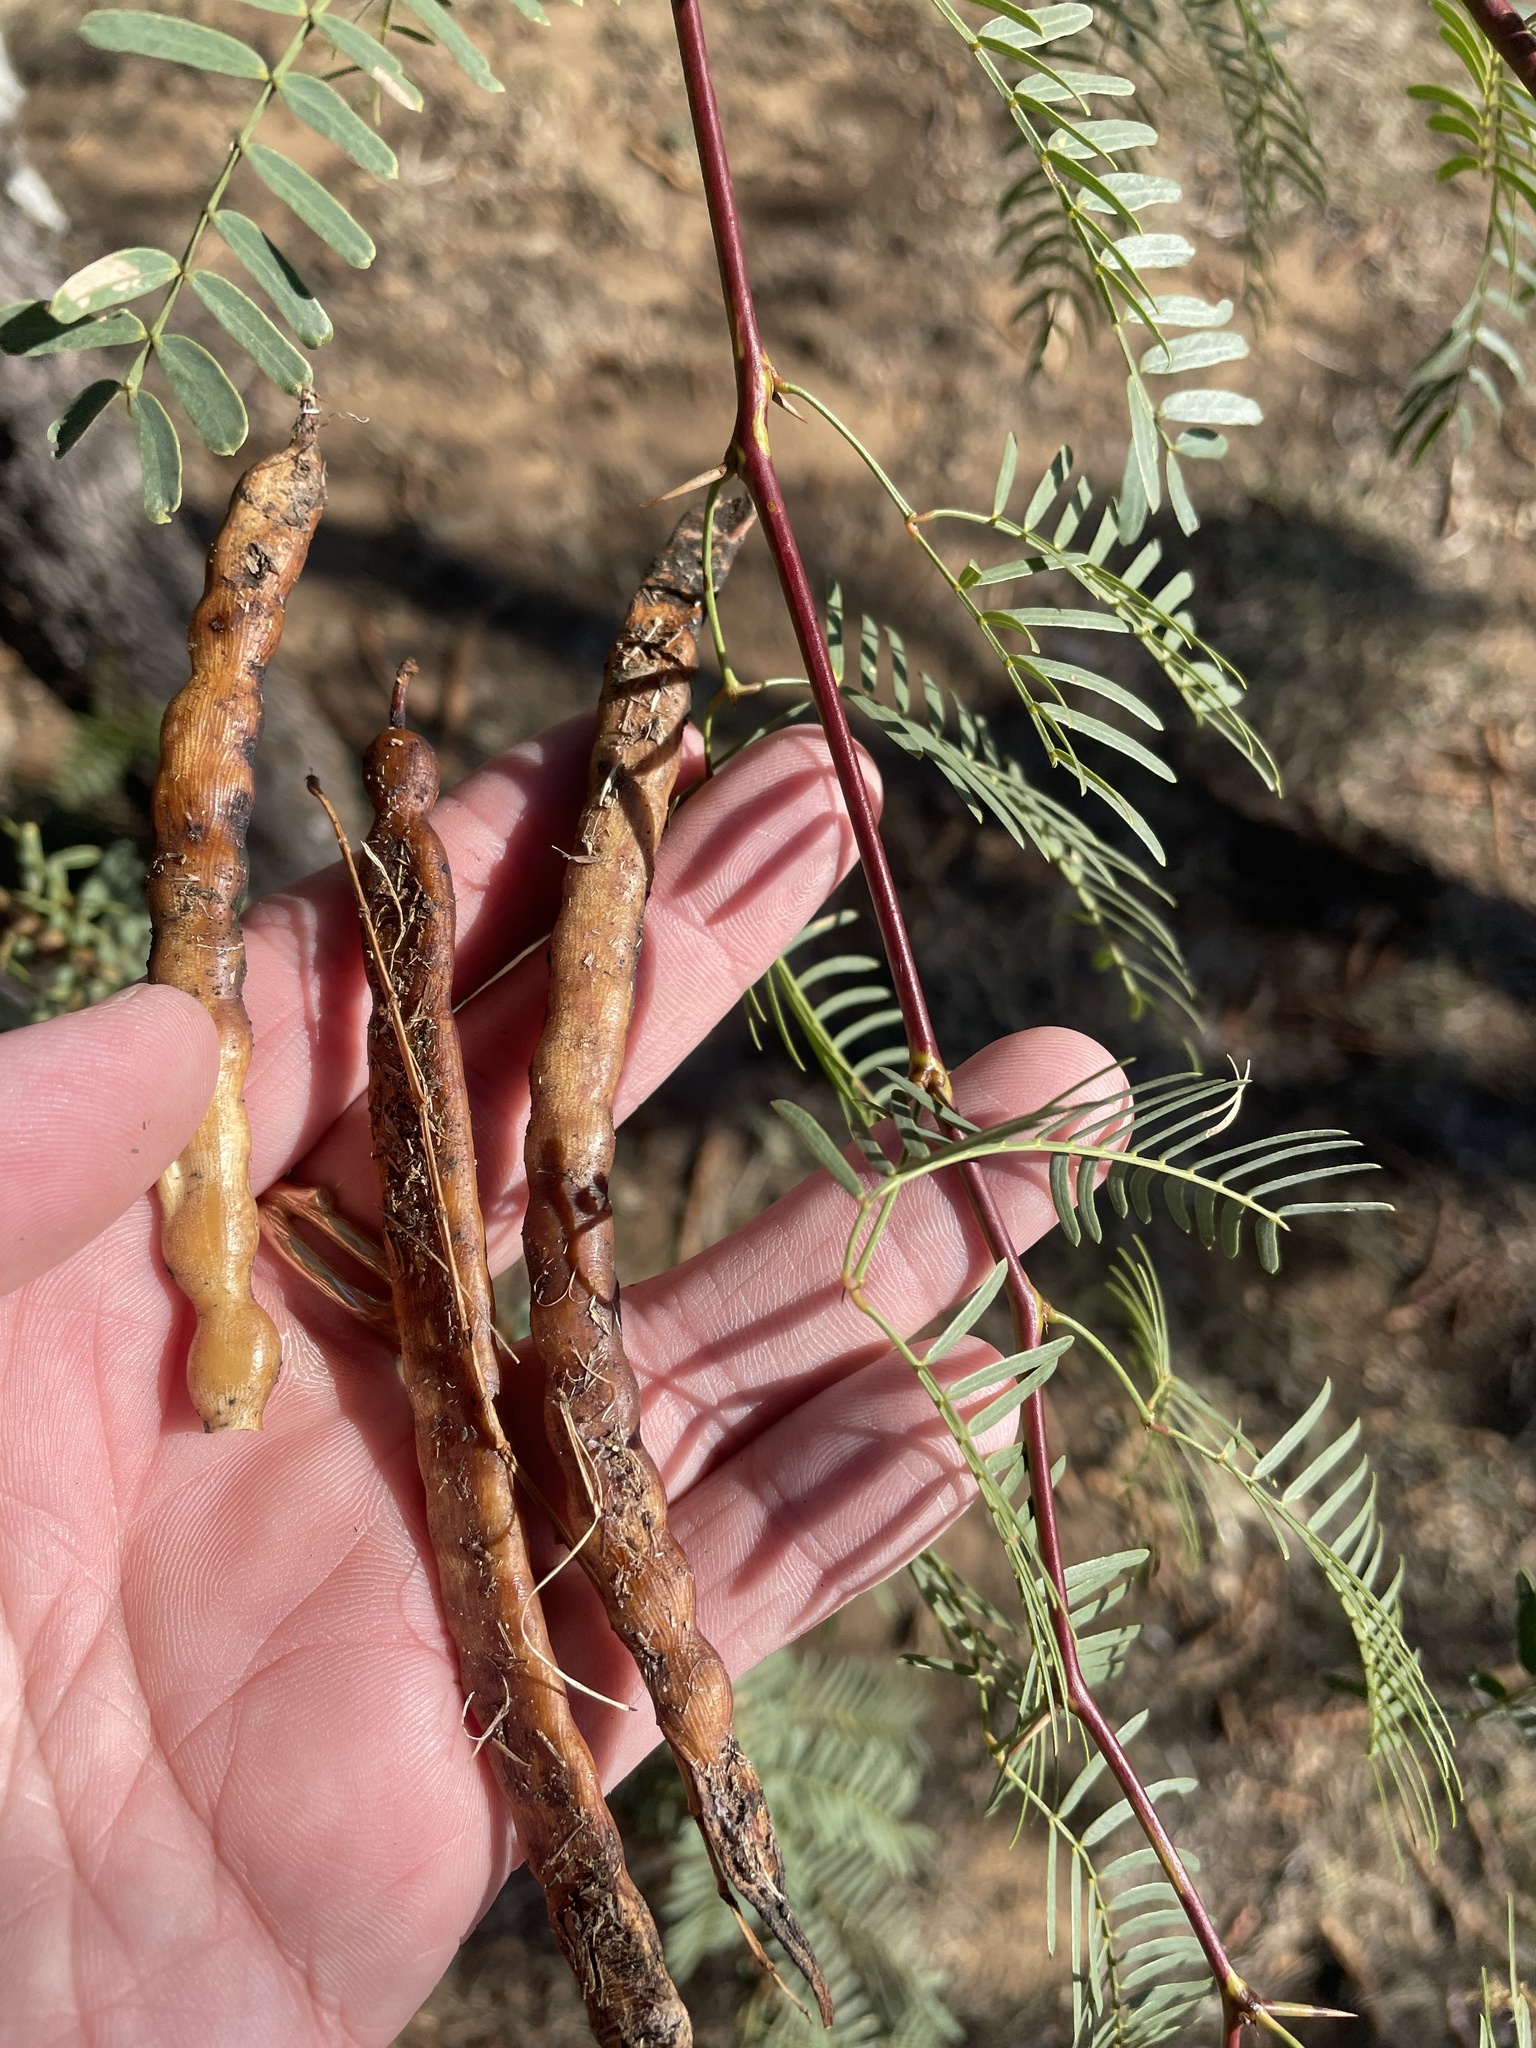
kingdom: Plantae
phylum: Tracheophyta
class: Magnoliopsida
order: Fabales
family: Fabaceae
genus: Prosopis
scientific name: Prosopis glandulosa
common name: Honey mesquite
